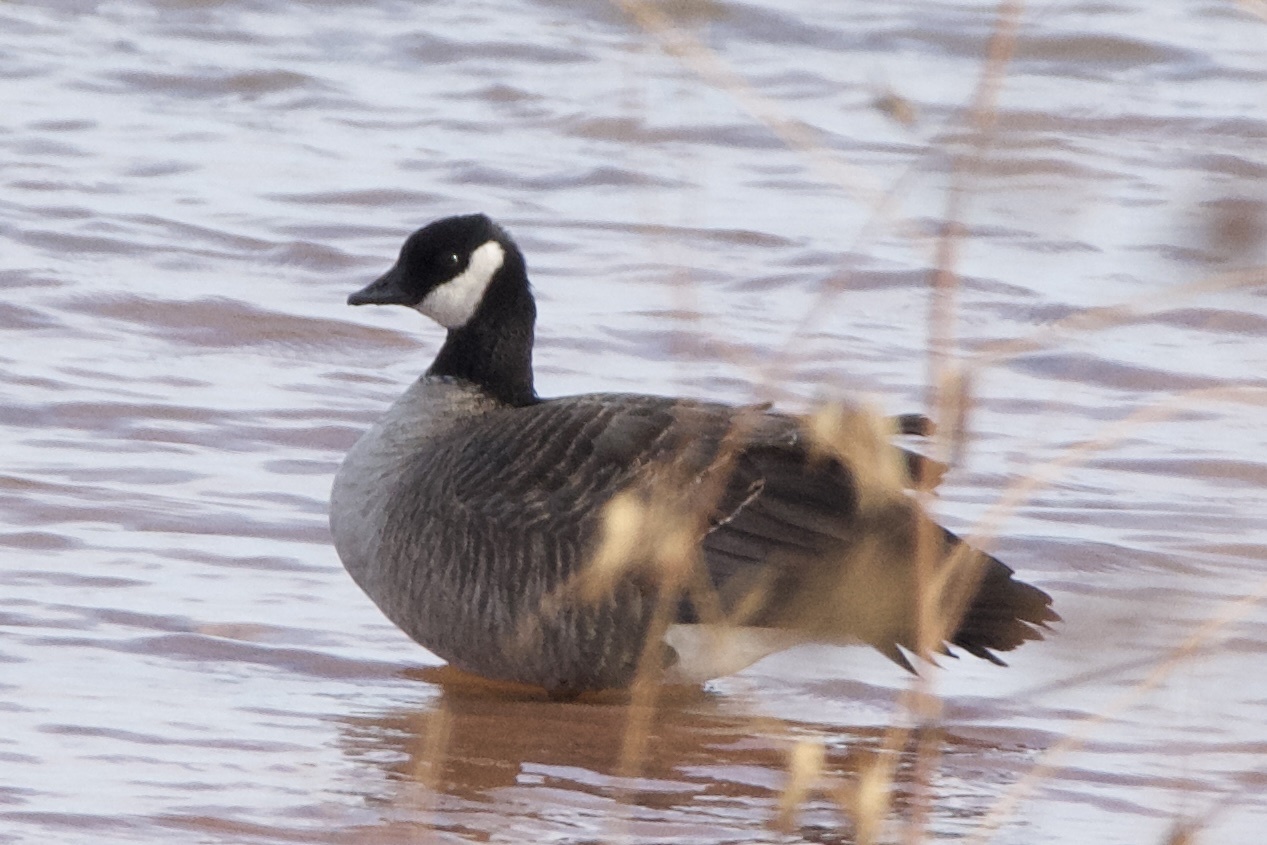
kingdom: Animalia
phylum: Chordata
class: Aves
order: Anseriformes
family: Anatidae
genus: Branta
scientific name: Branta hutchinsii
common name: Cackling goose
